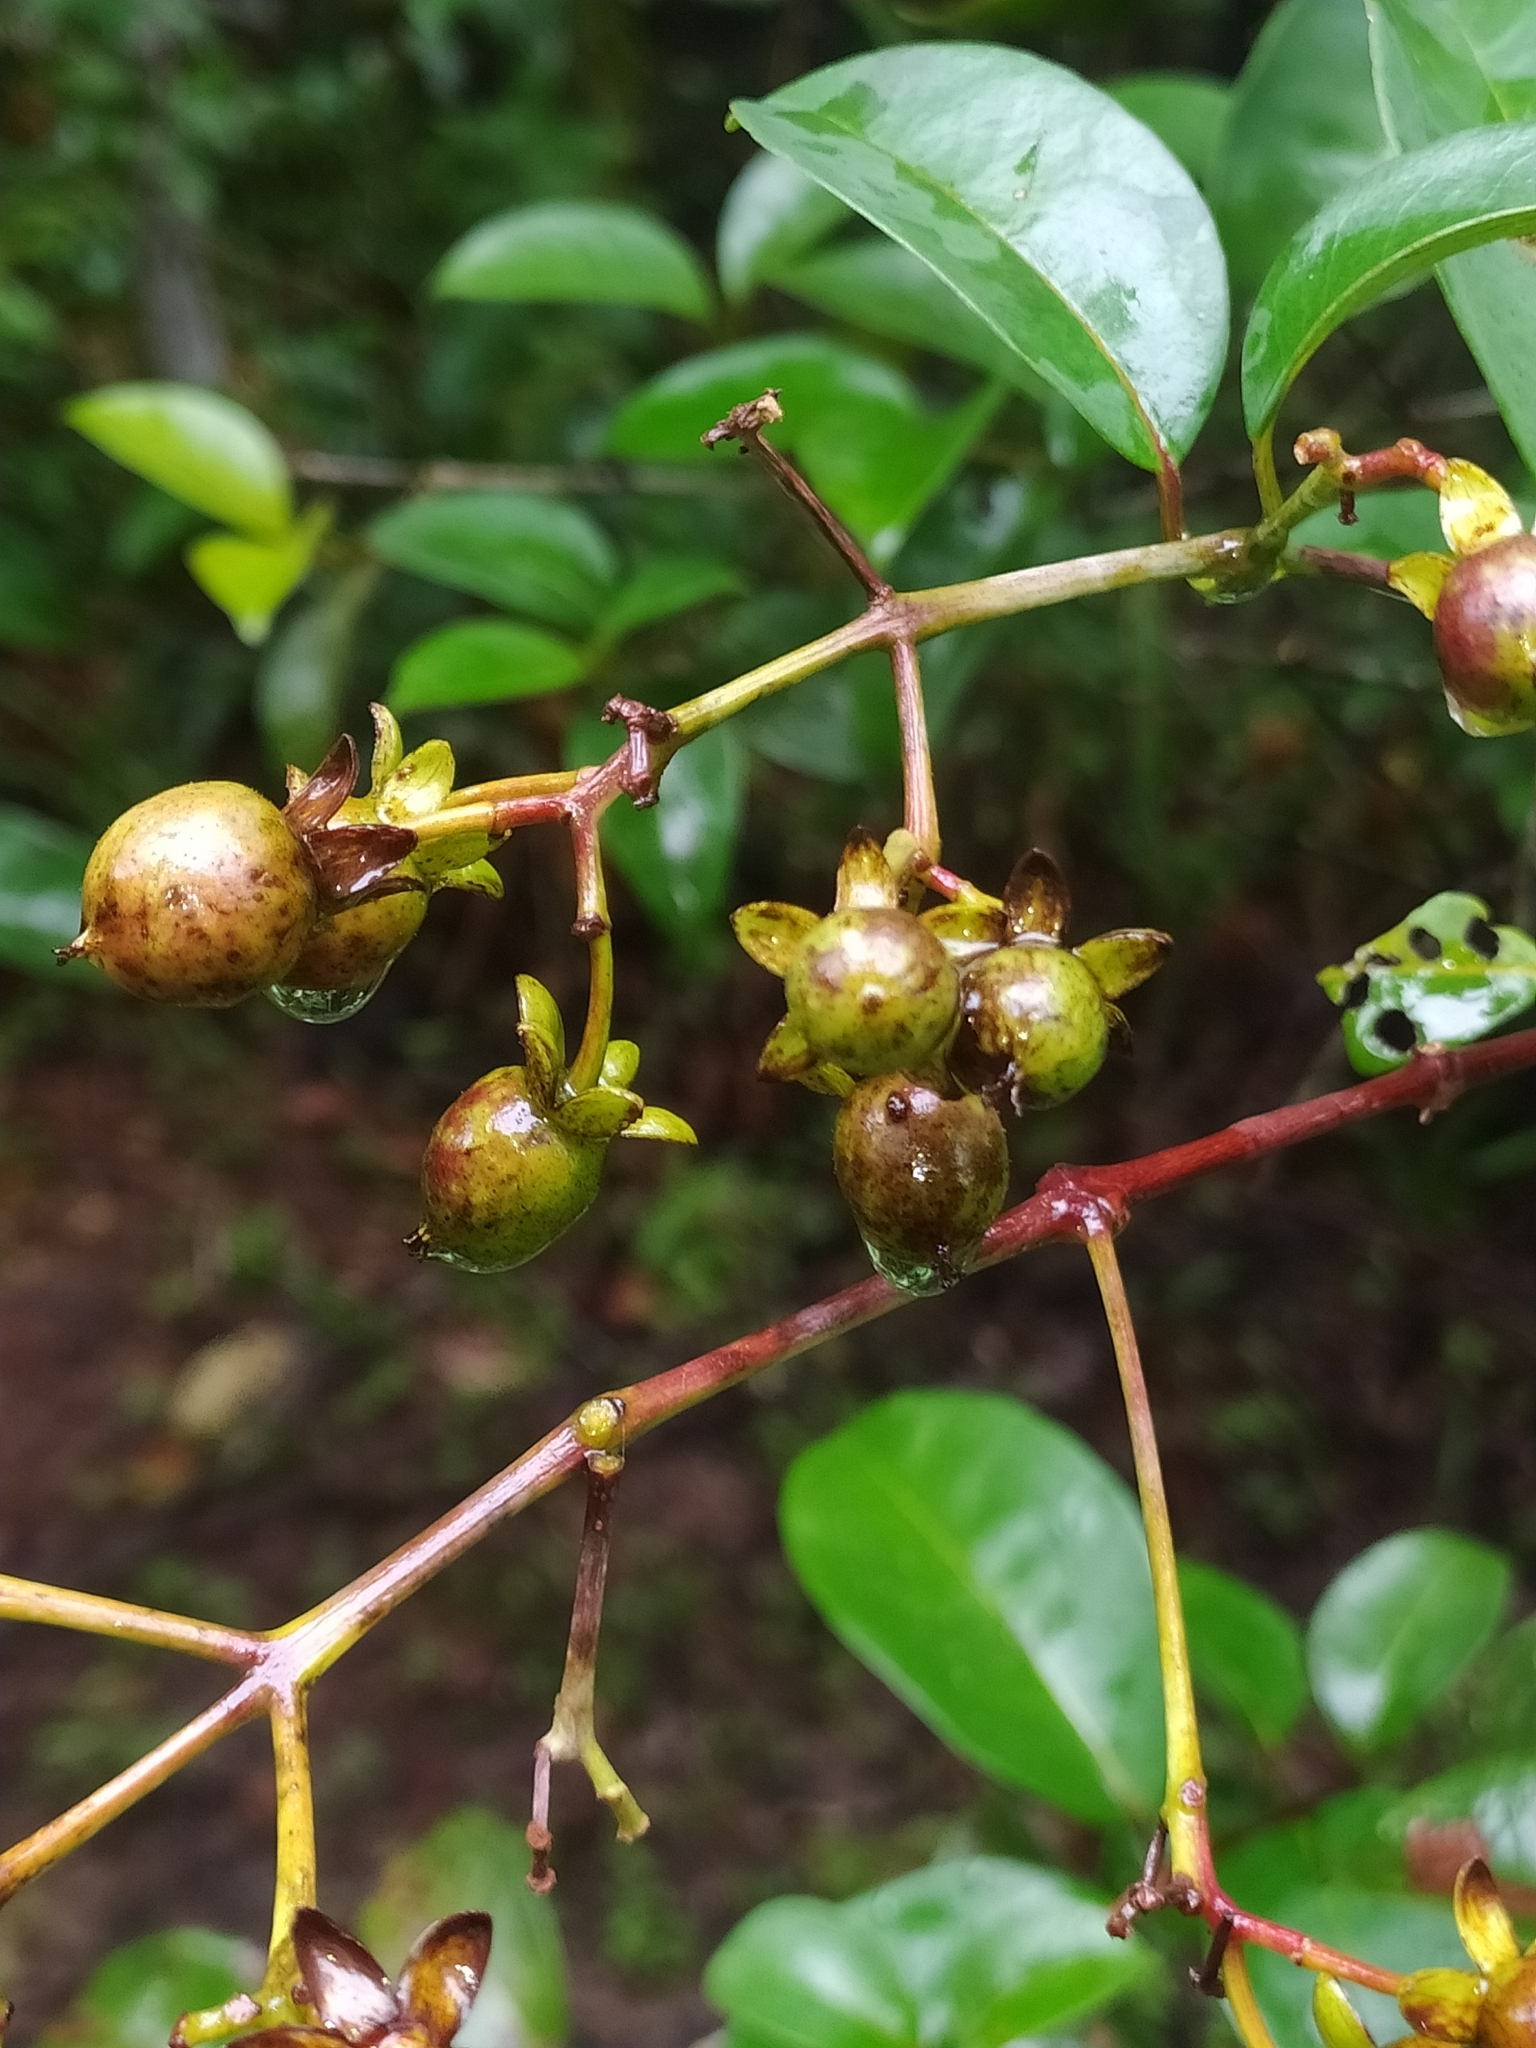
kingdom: Plantae
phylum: Tracheophyta
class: Magnoliopsida
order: Malpighiales
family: Hypericaceae
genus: Vismia
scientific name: Vismia cayennensis
